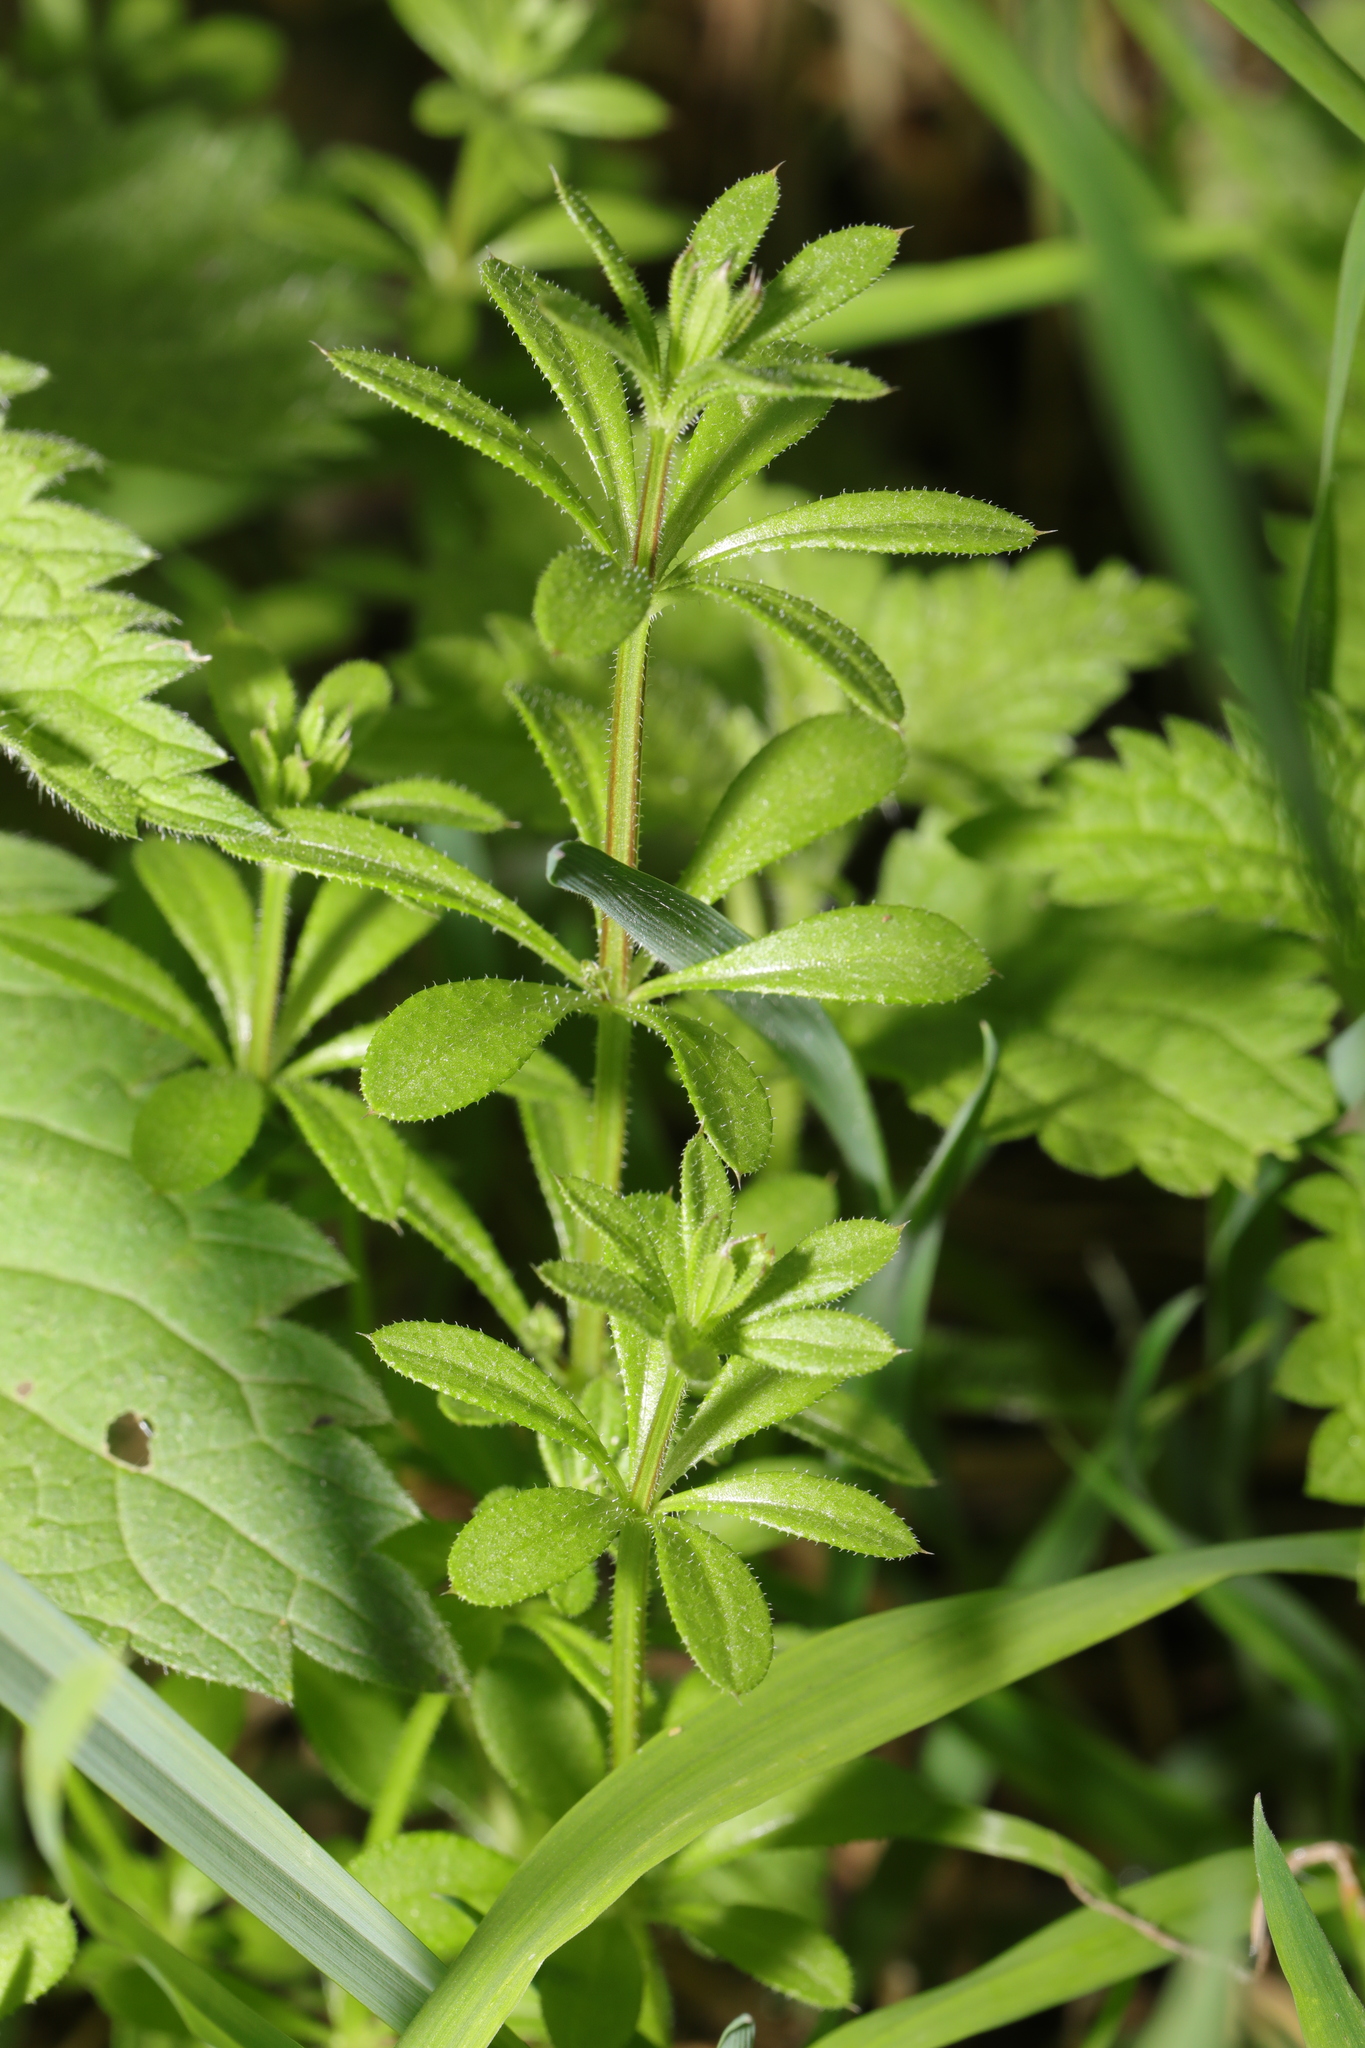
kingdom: Plantae
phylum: Tracheophyta
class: Magnoliopsida
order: Gentianales
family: Rubiaceae
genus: Galium
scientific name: Galium aparine
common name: Cleavers
